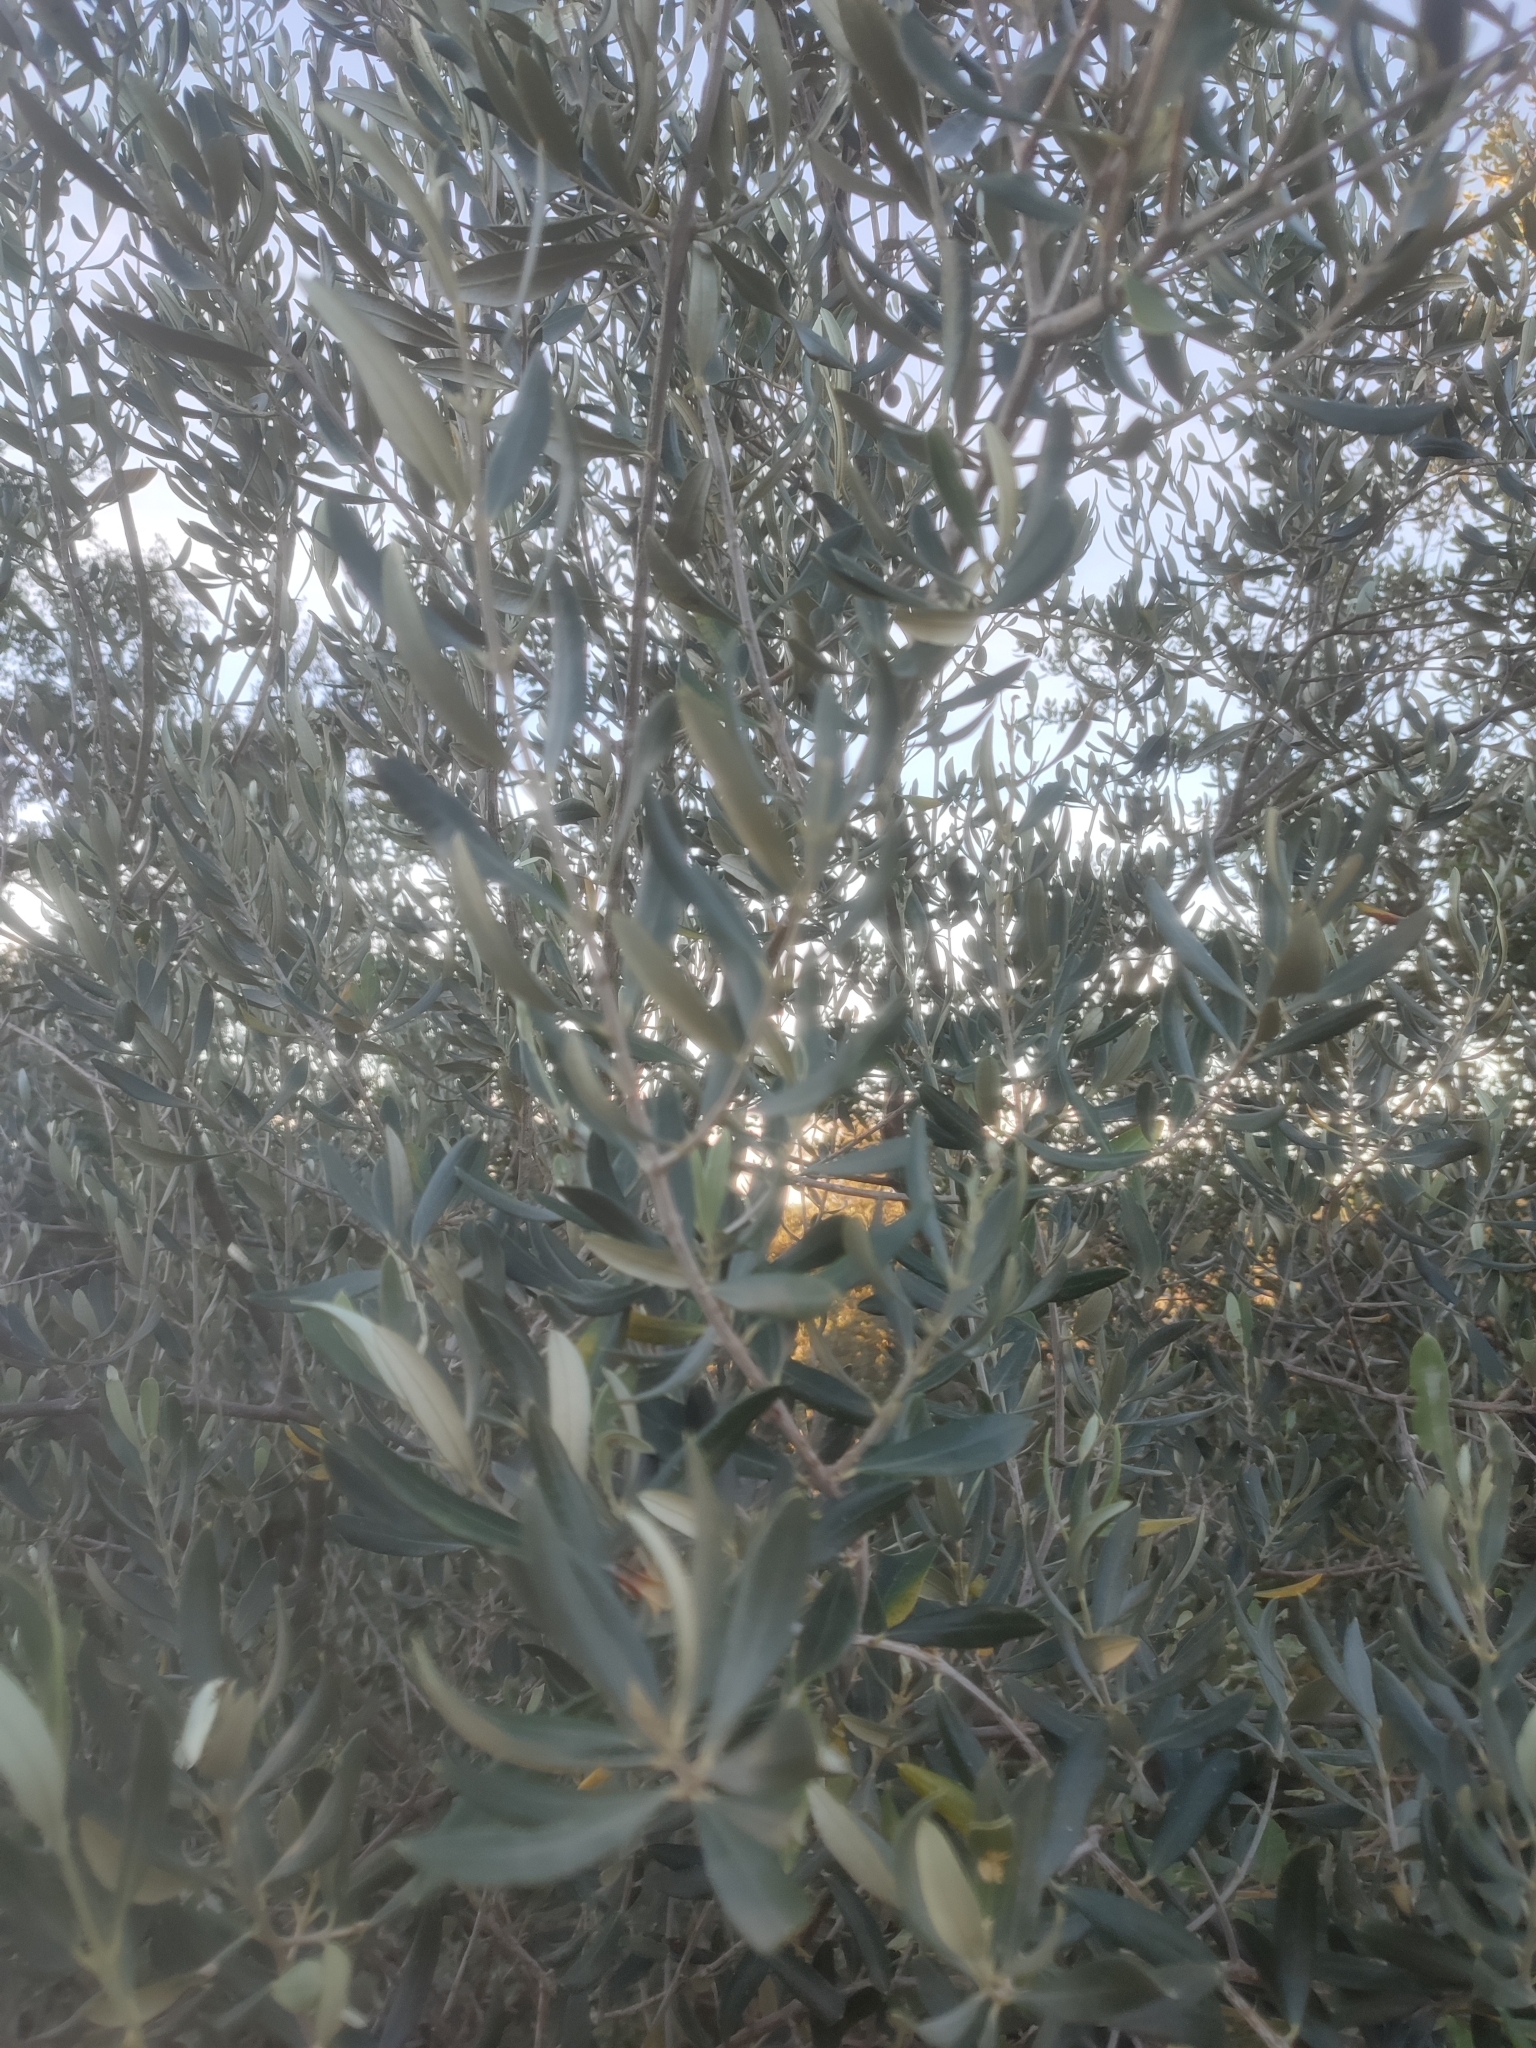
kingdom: Plantae
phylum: Tracheophyta
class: Magnoliopsida
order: Lamiales
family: Oleaceae
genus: Olea
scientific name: Olea europaea
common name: Olive
